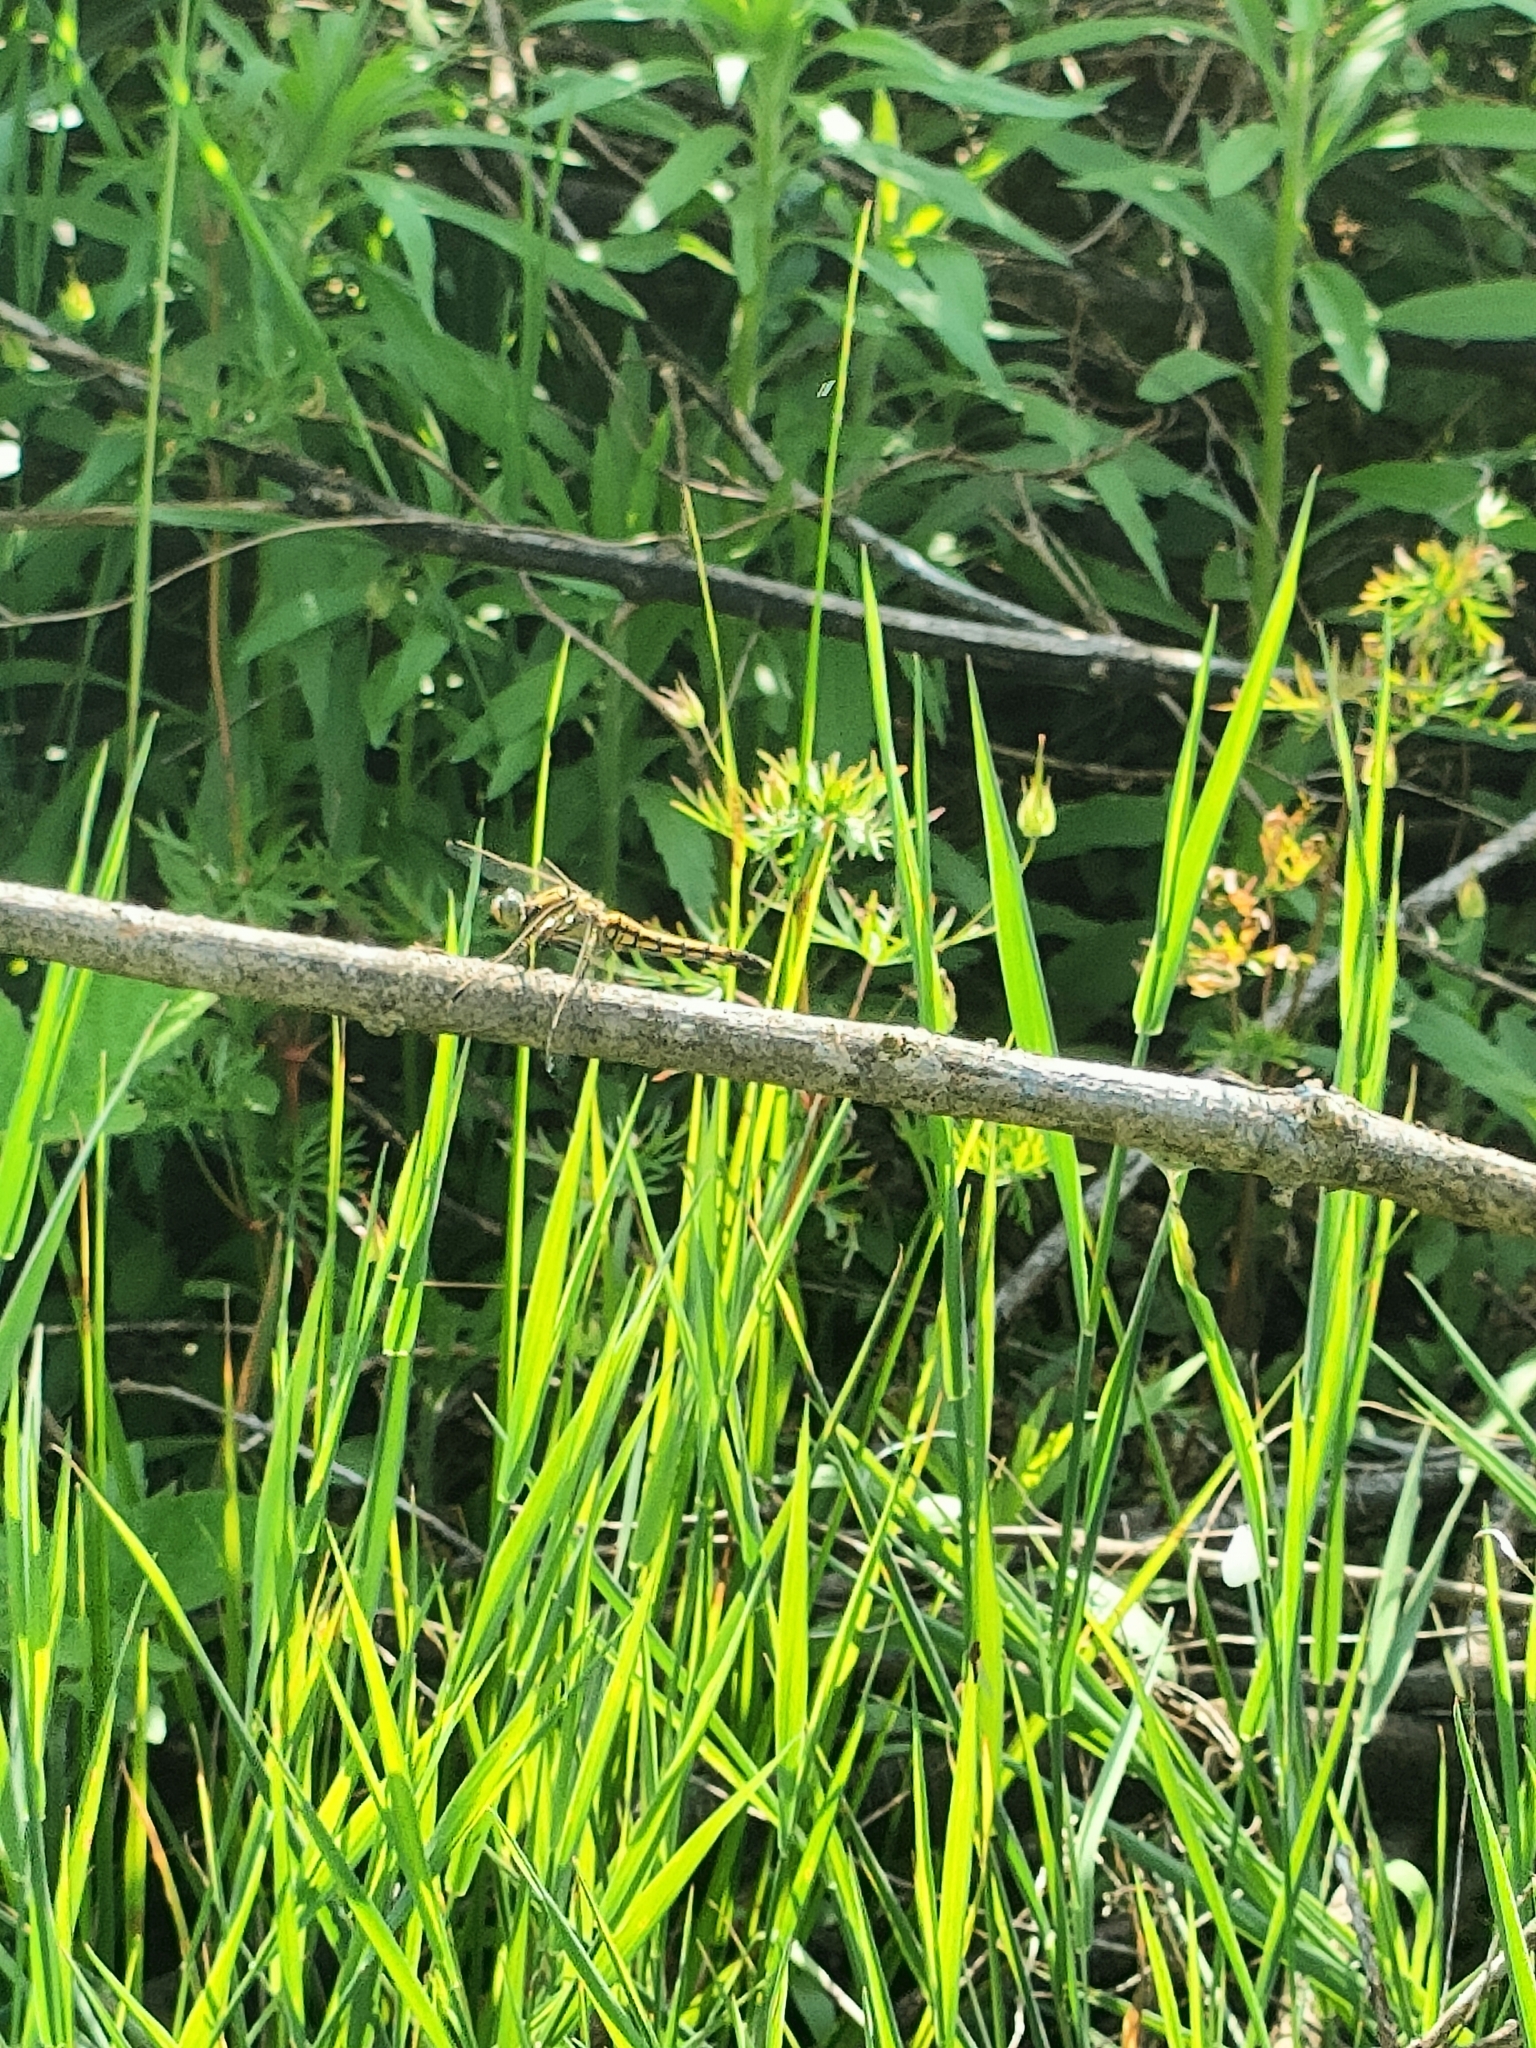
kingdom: Animalia
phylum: Arthropoda
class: Insecta
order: Odonata
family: Libellulidae
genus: Orthetrum
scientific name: Orthetrum cancellatum
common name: Black-tailed skimmer
